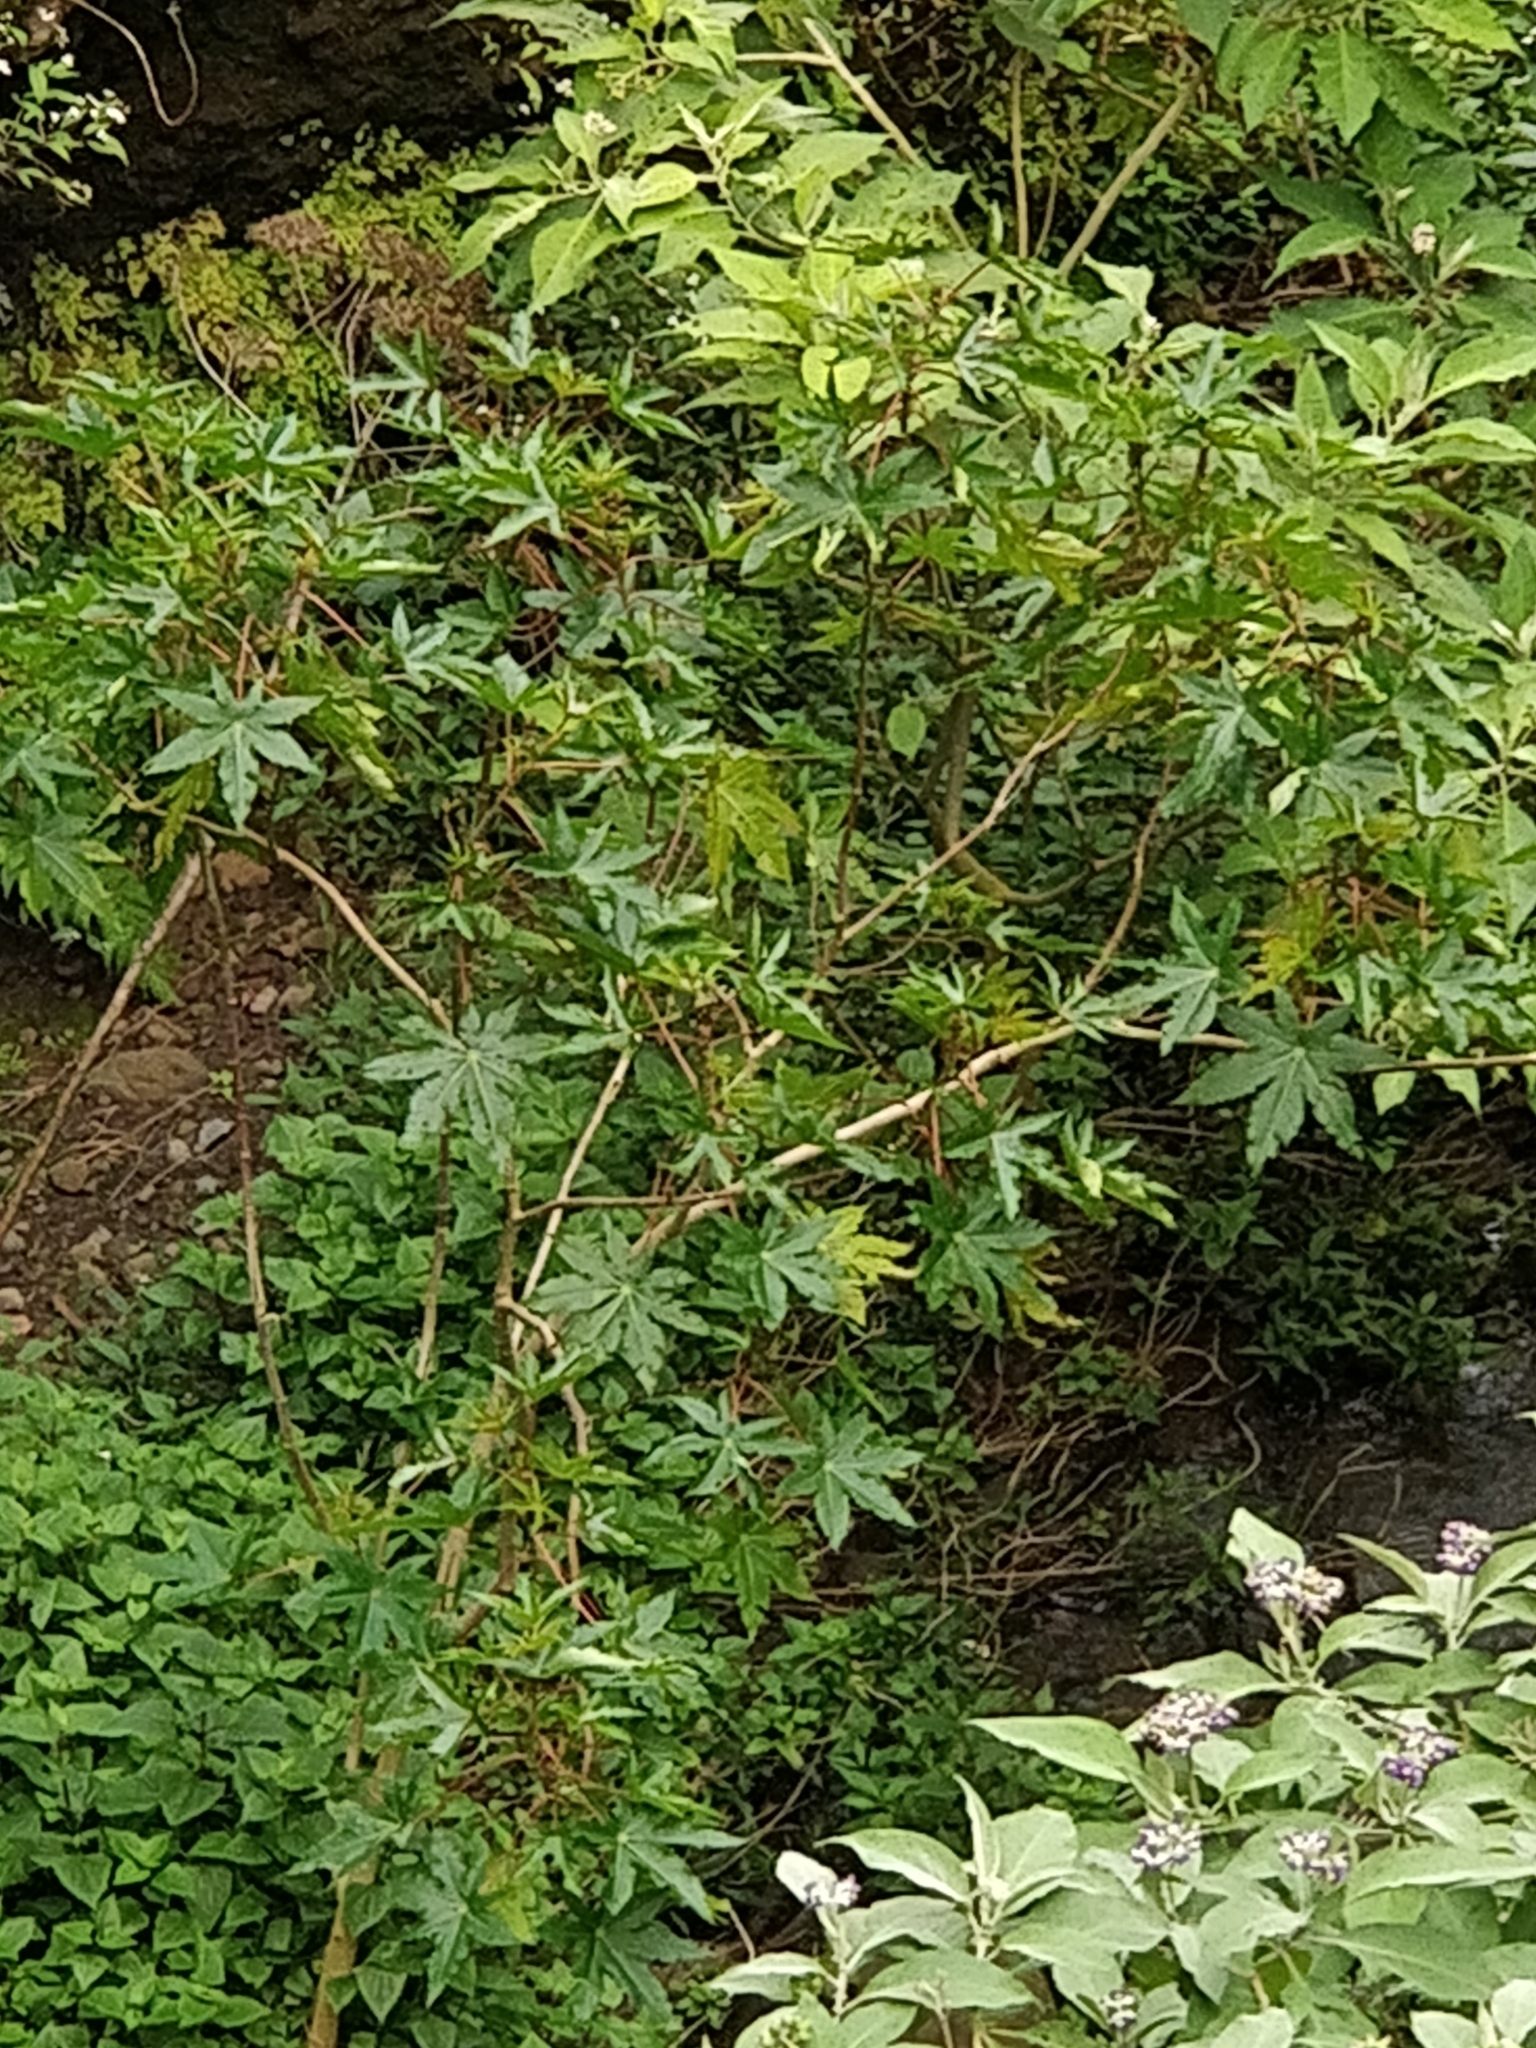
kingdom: Plantae
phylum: Tracheophyta
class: Magnoliopsida
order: Malpighiales
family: Euphorbiaceae
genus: Ricinus
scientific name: Ricinus communis
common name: Castor-oil-plant
